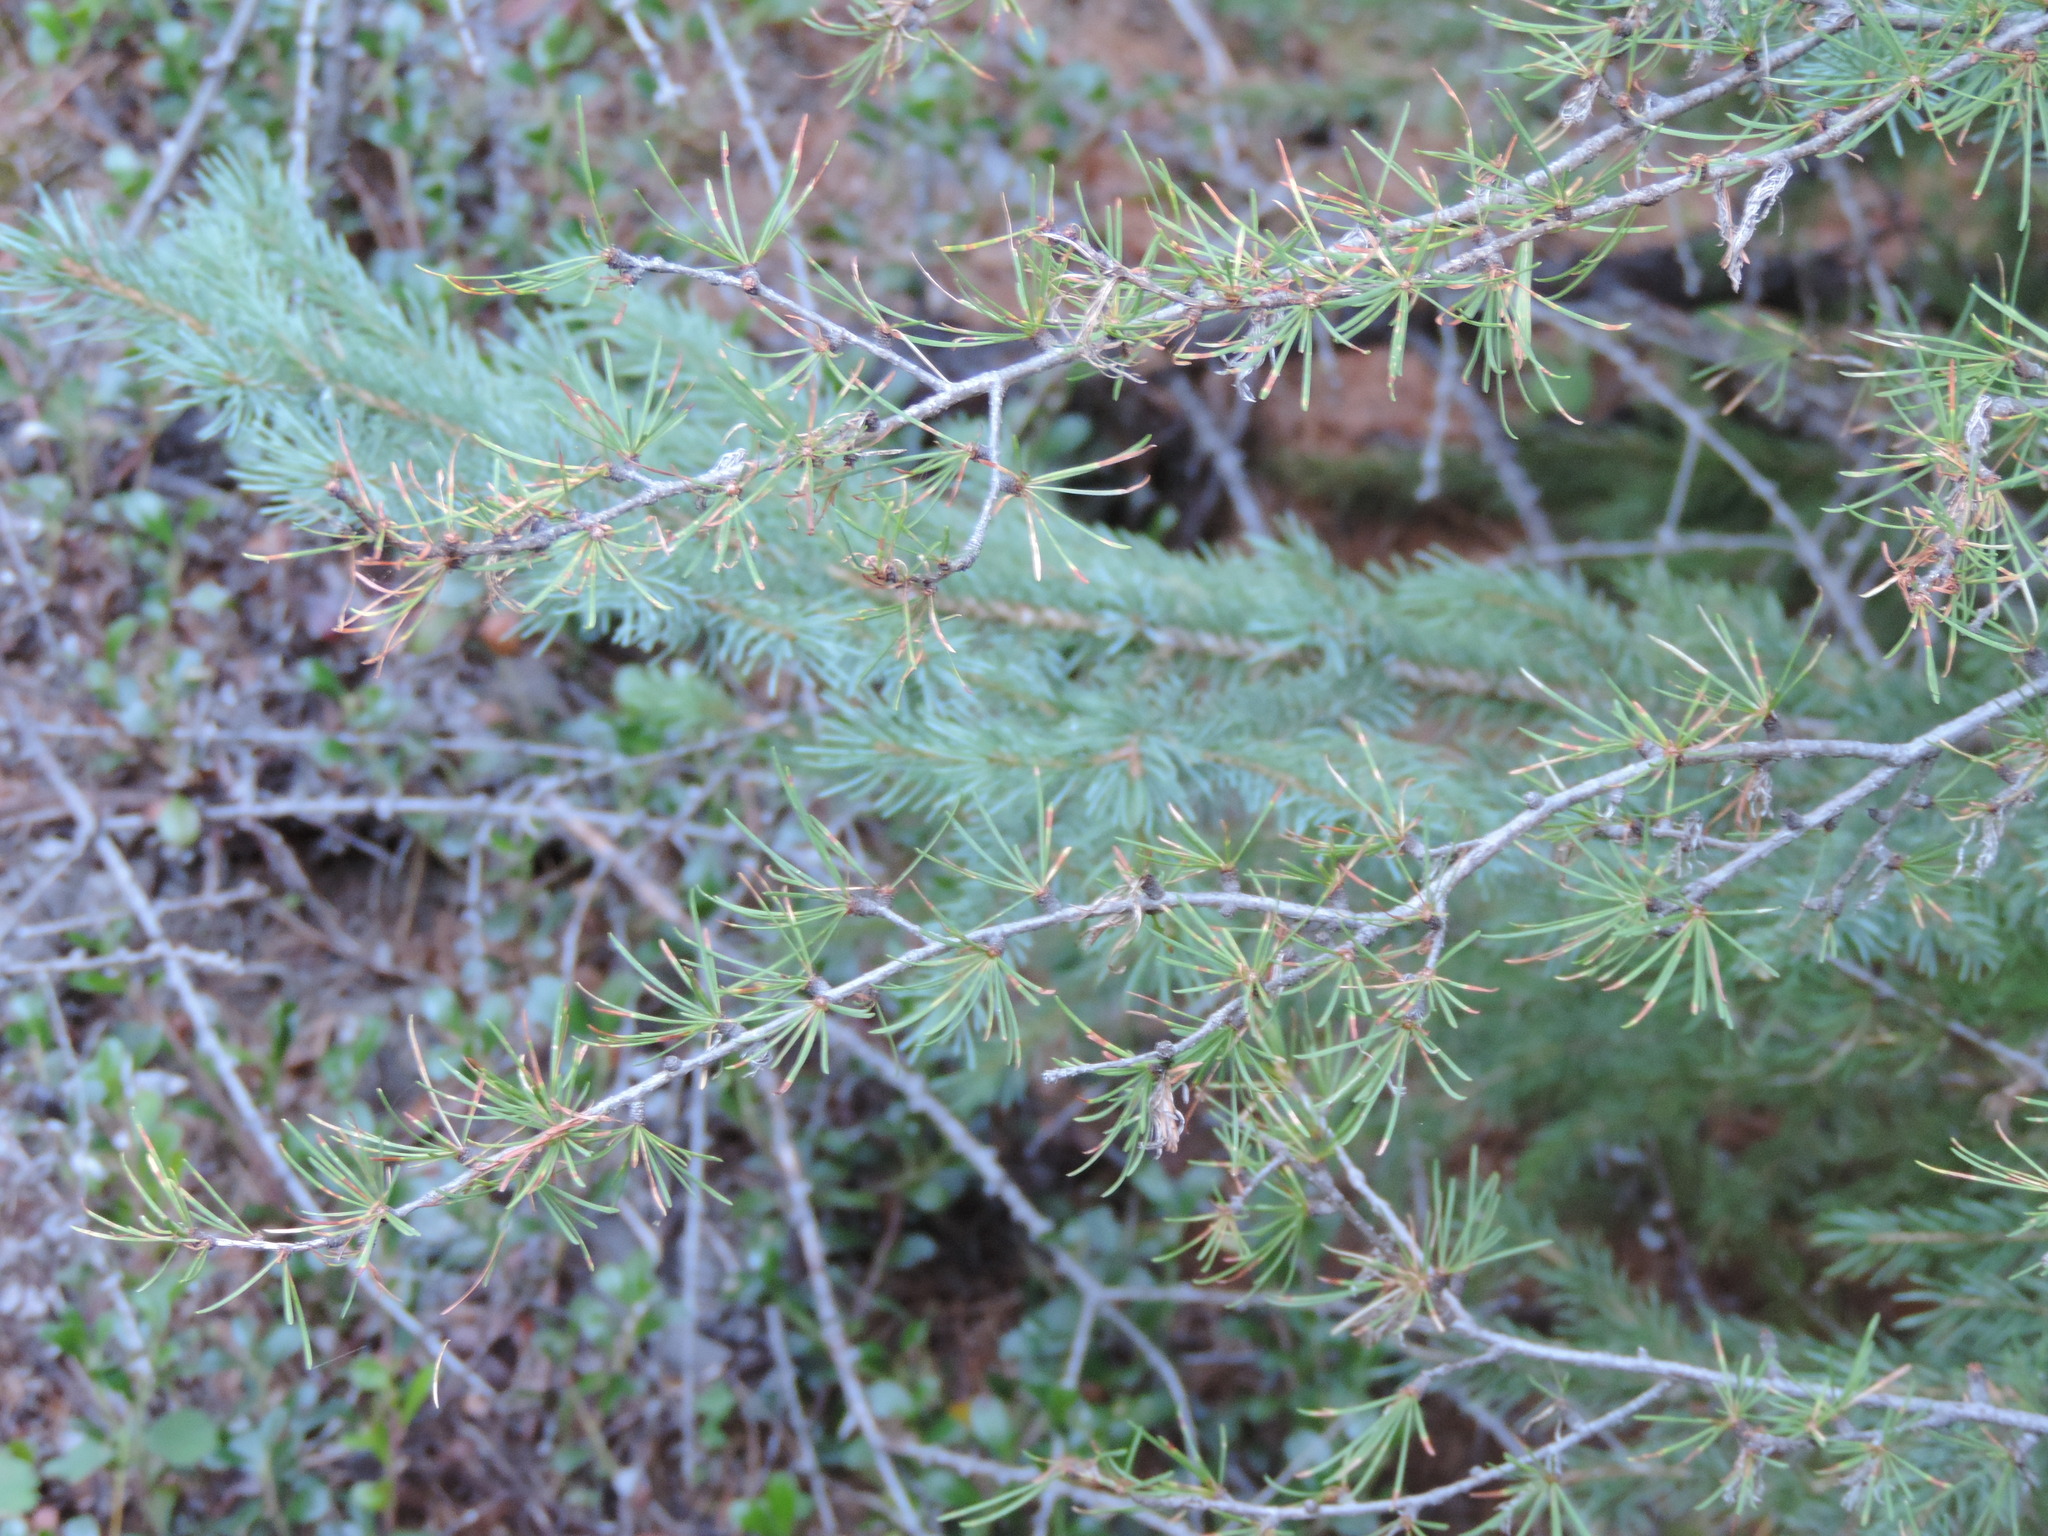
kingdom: Plantae
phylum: Tracheophyta
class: Pinopsida
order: Pinales
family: Pinaceae
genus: Larix
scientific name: Larix occidentalis
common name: Western larch
